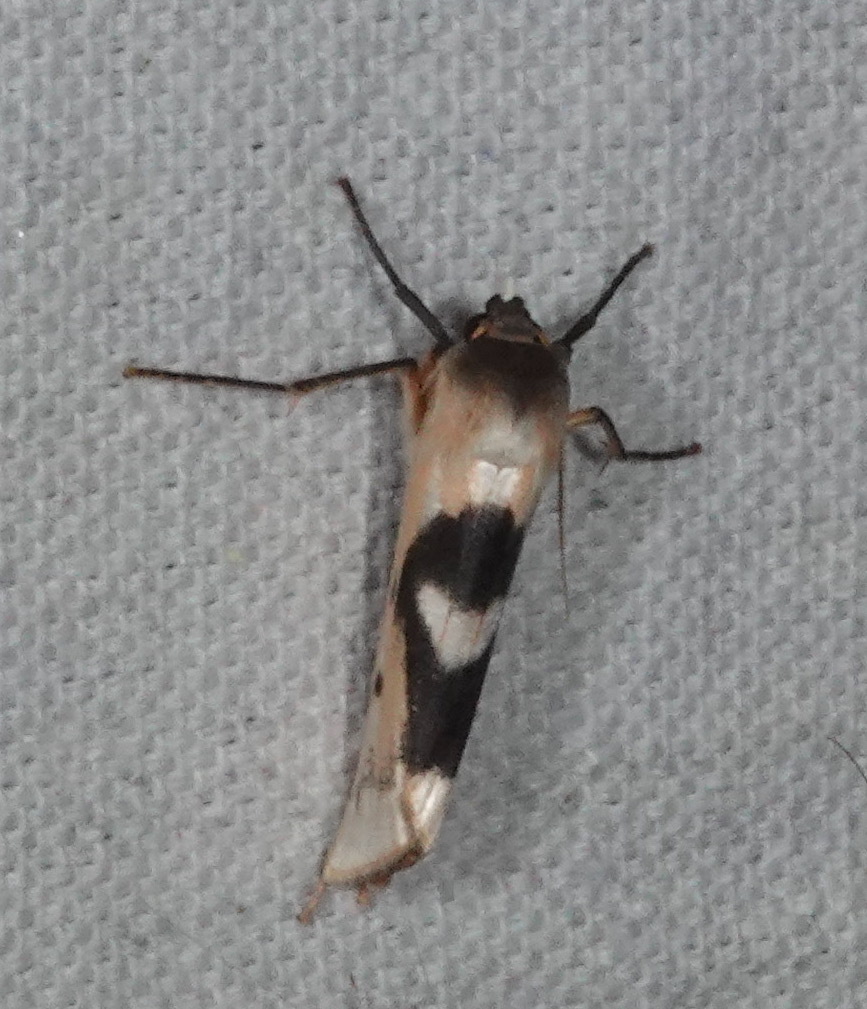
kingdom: Animalia
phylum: Arthropoda
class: Insecta
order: Lepidoptera
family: Erebidae
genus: Agylla
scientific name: Agylla nitidalis
